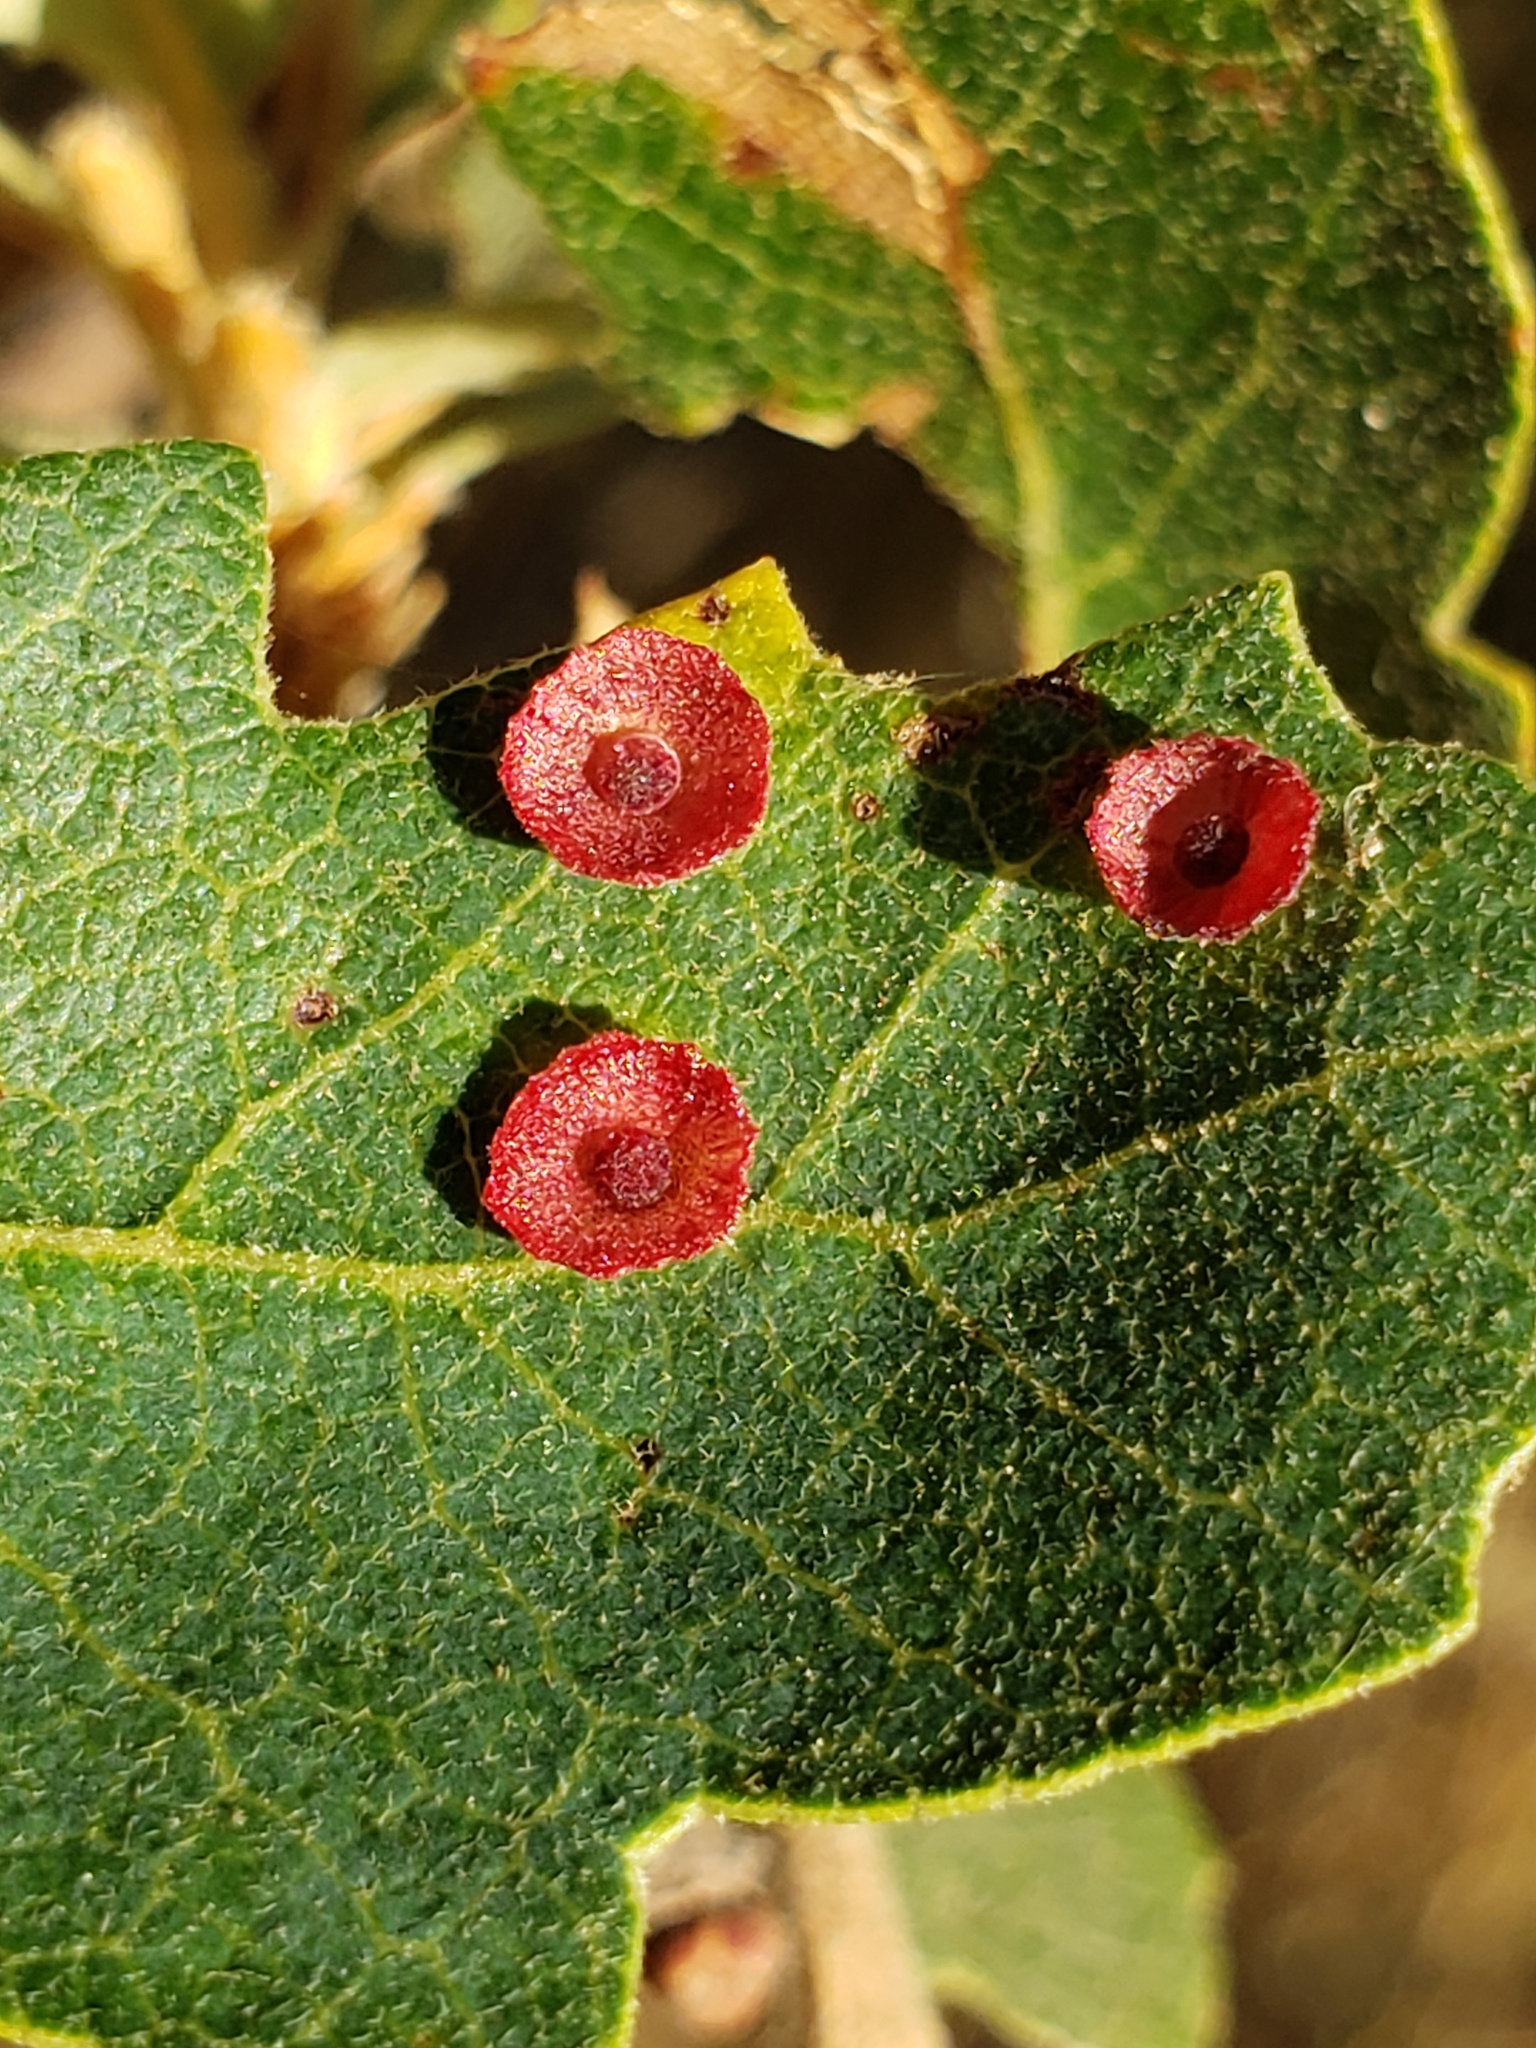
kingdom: Animalia
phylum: Arthropoda
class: Insecta
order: Hymenoptera
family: Cynipidae
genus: Andricus
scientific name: Andricus
